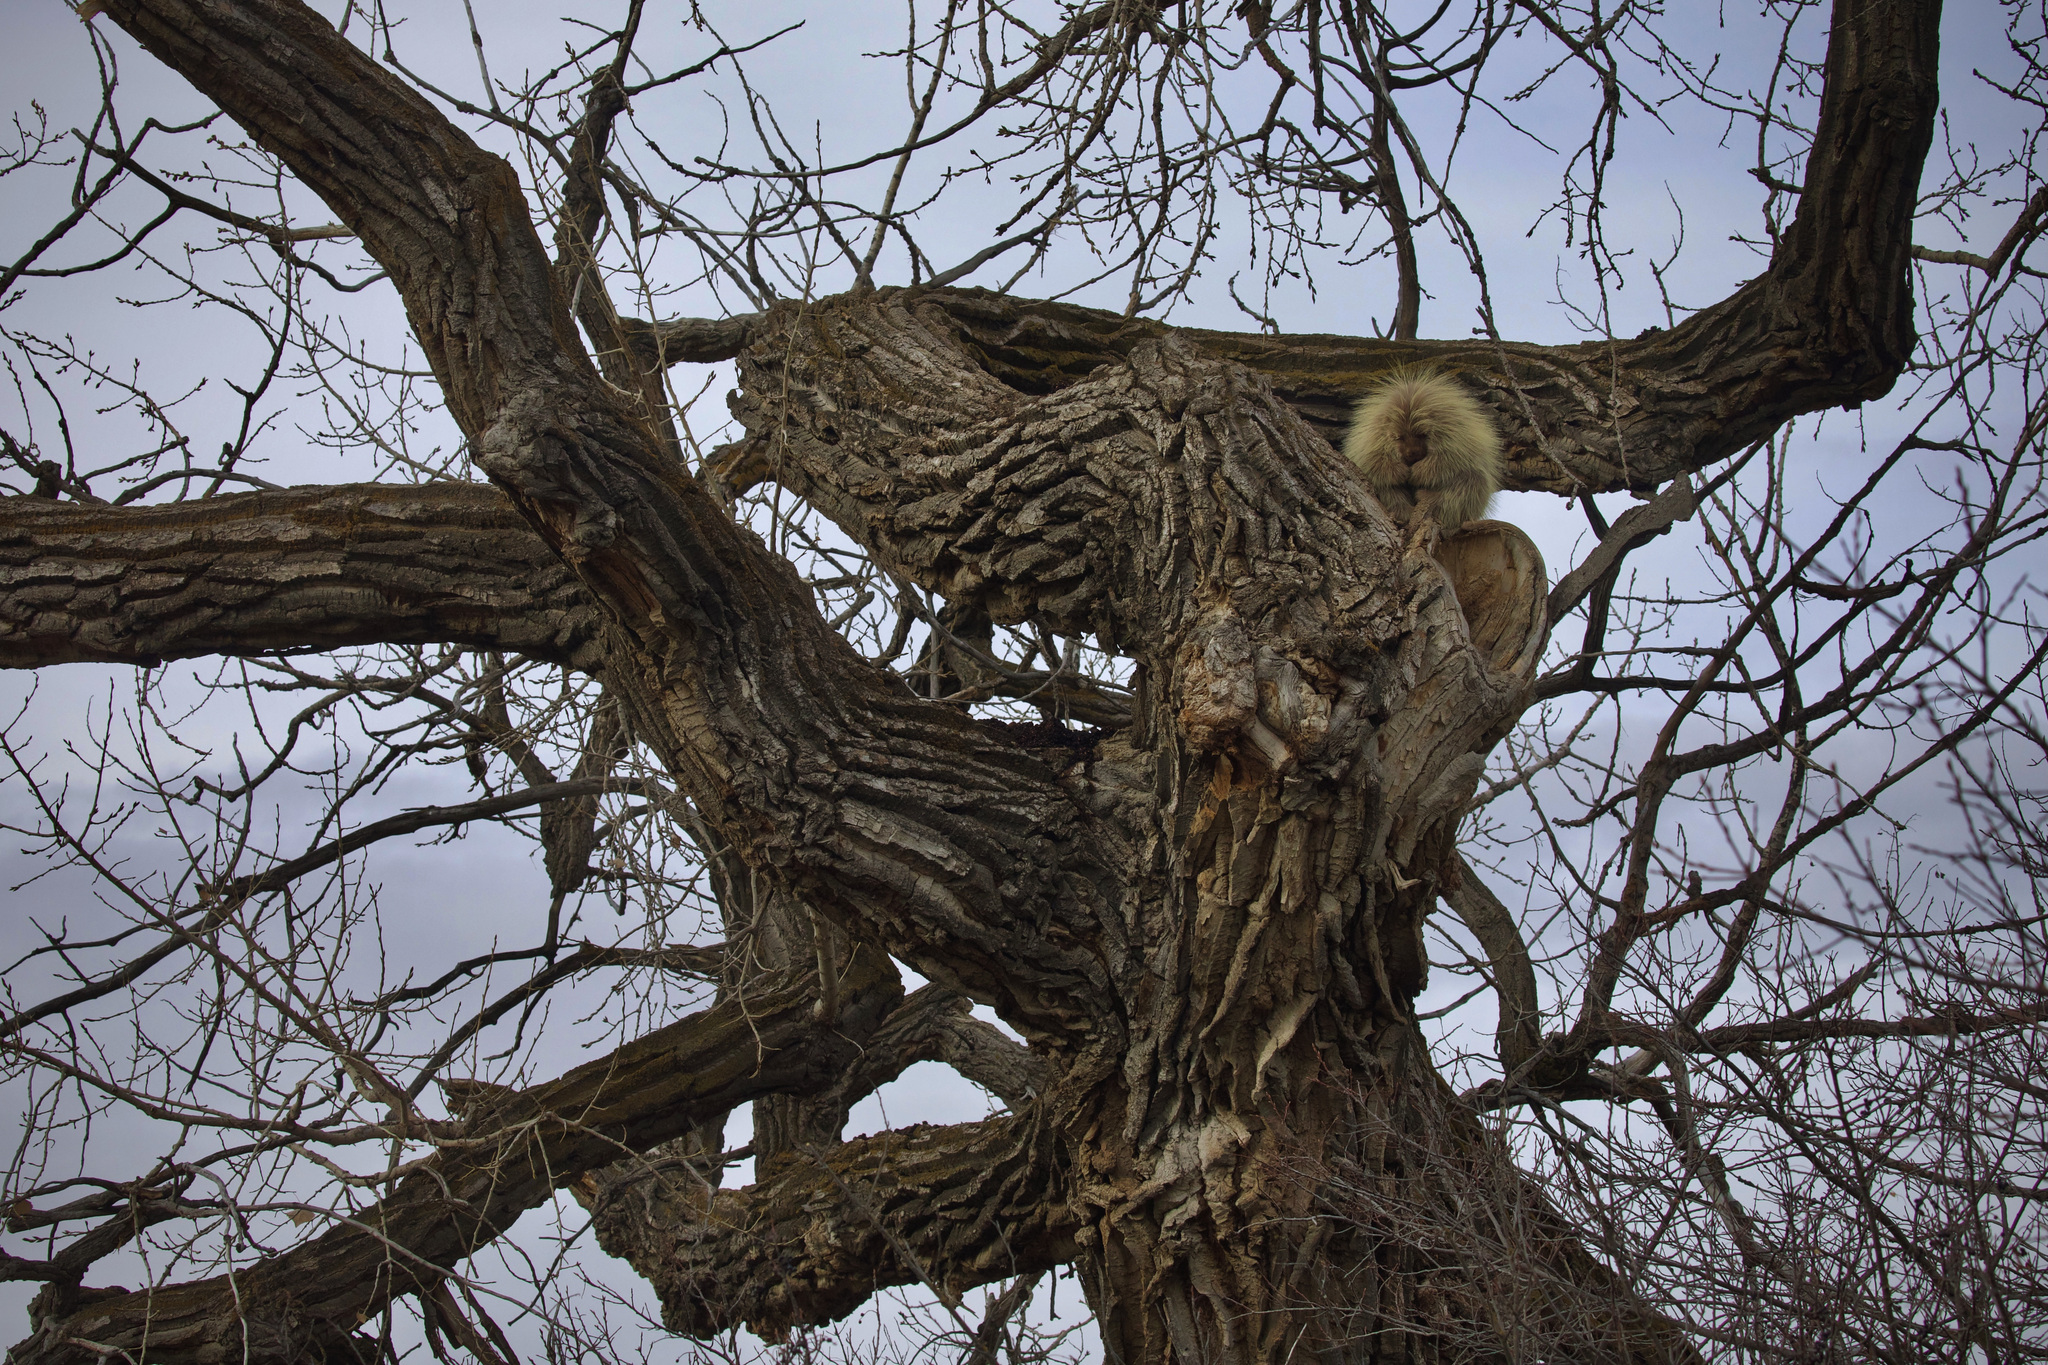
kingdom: Animalia
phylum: Chordata
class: Mammalia
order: Rodentia
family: Erethizontidae
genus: Erethizon
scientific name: Erethizon dorsatus
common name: North american porcupine
